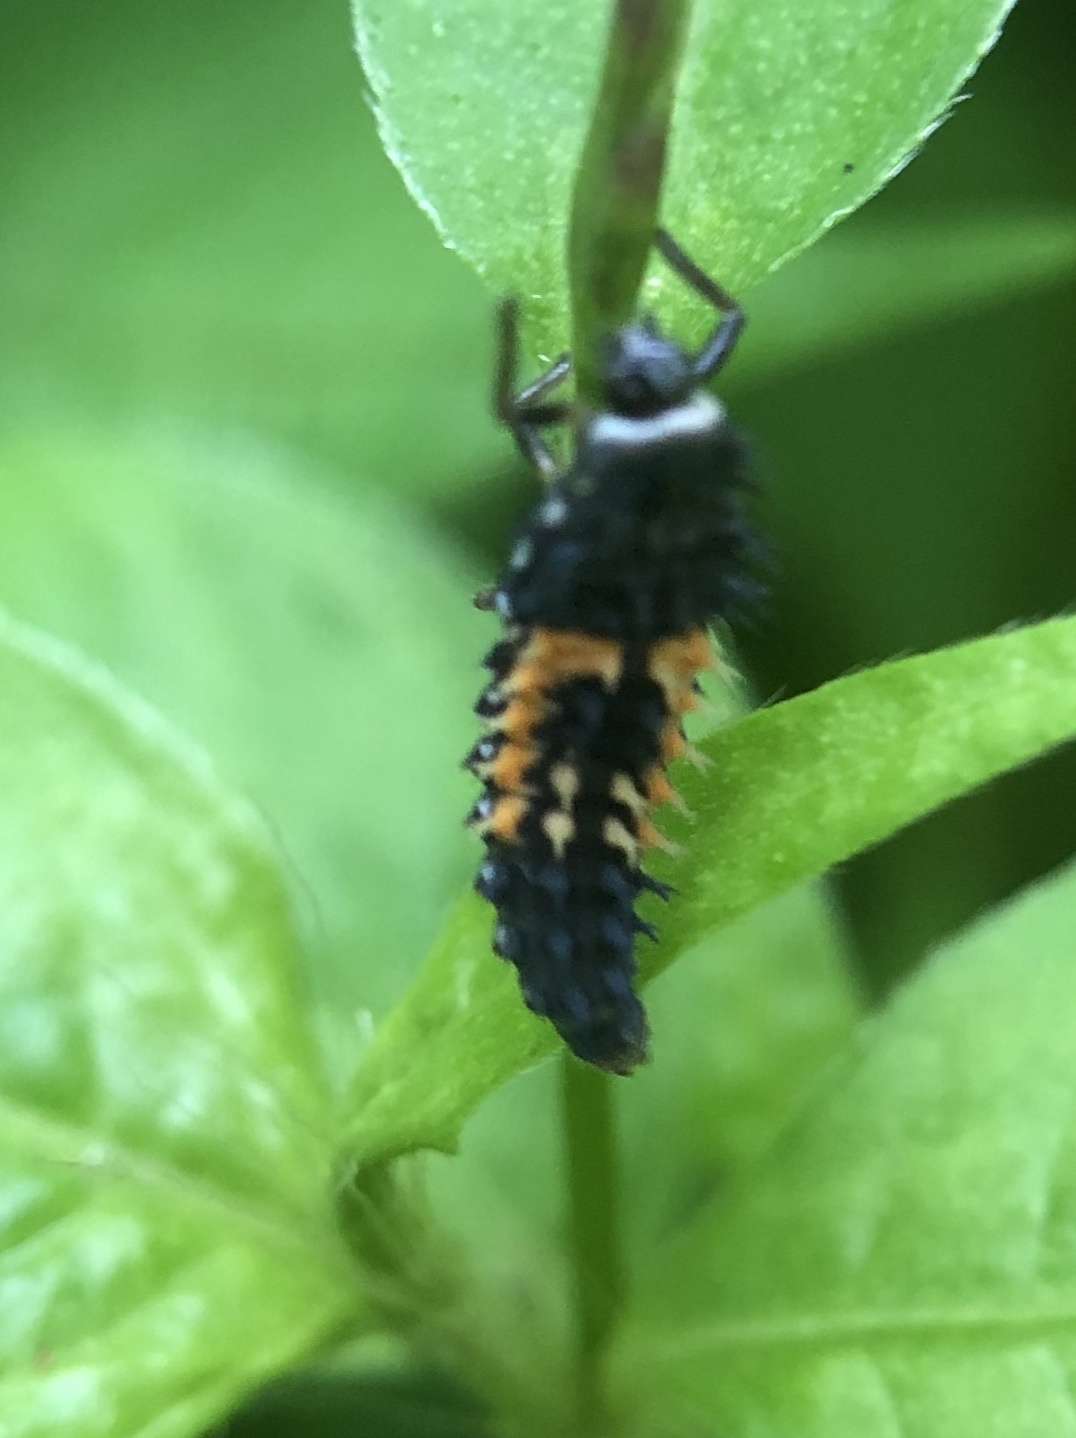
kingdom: Animalia
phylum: Arthropoda
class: Insecta
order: Coleoptera
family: Coccinellidae
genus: Harmonia
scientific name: Harmonia axyridis
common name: Harlequin ladybird
